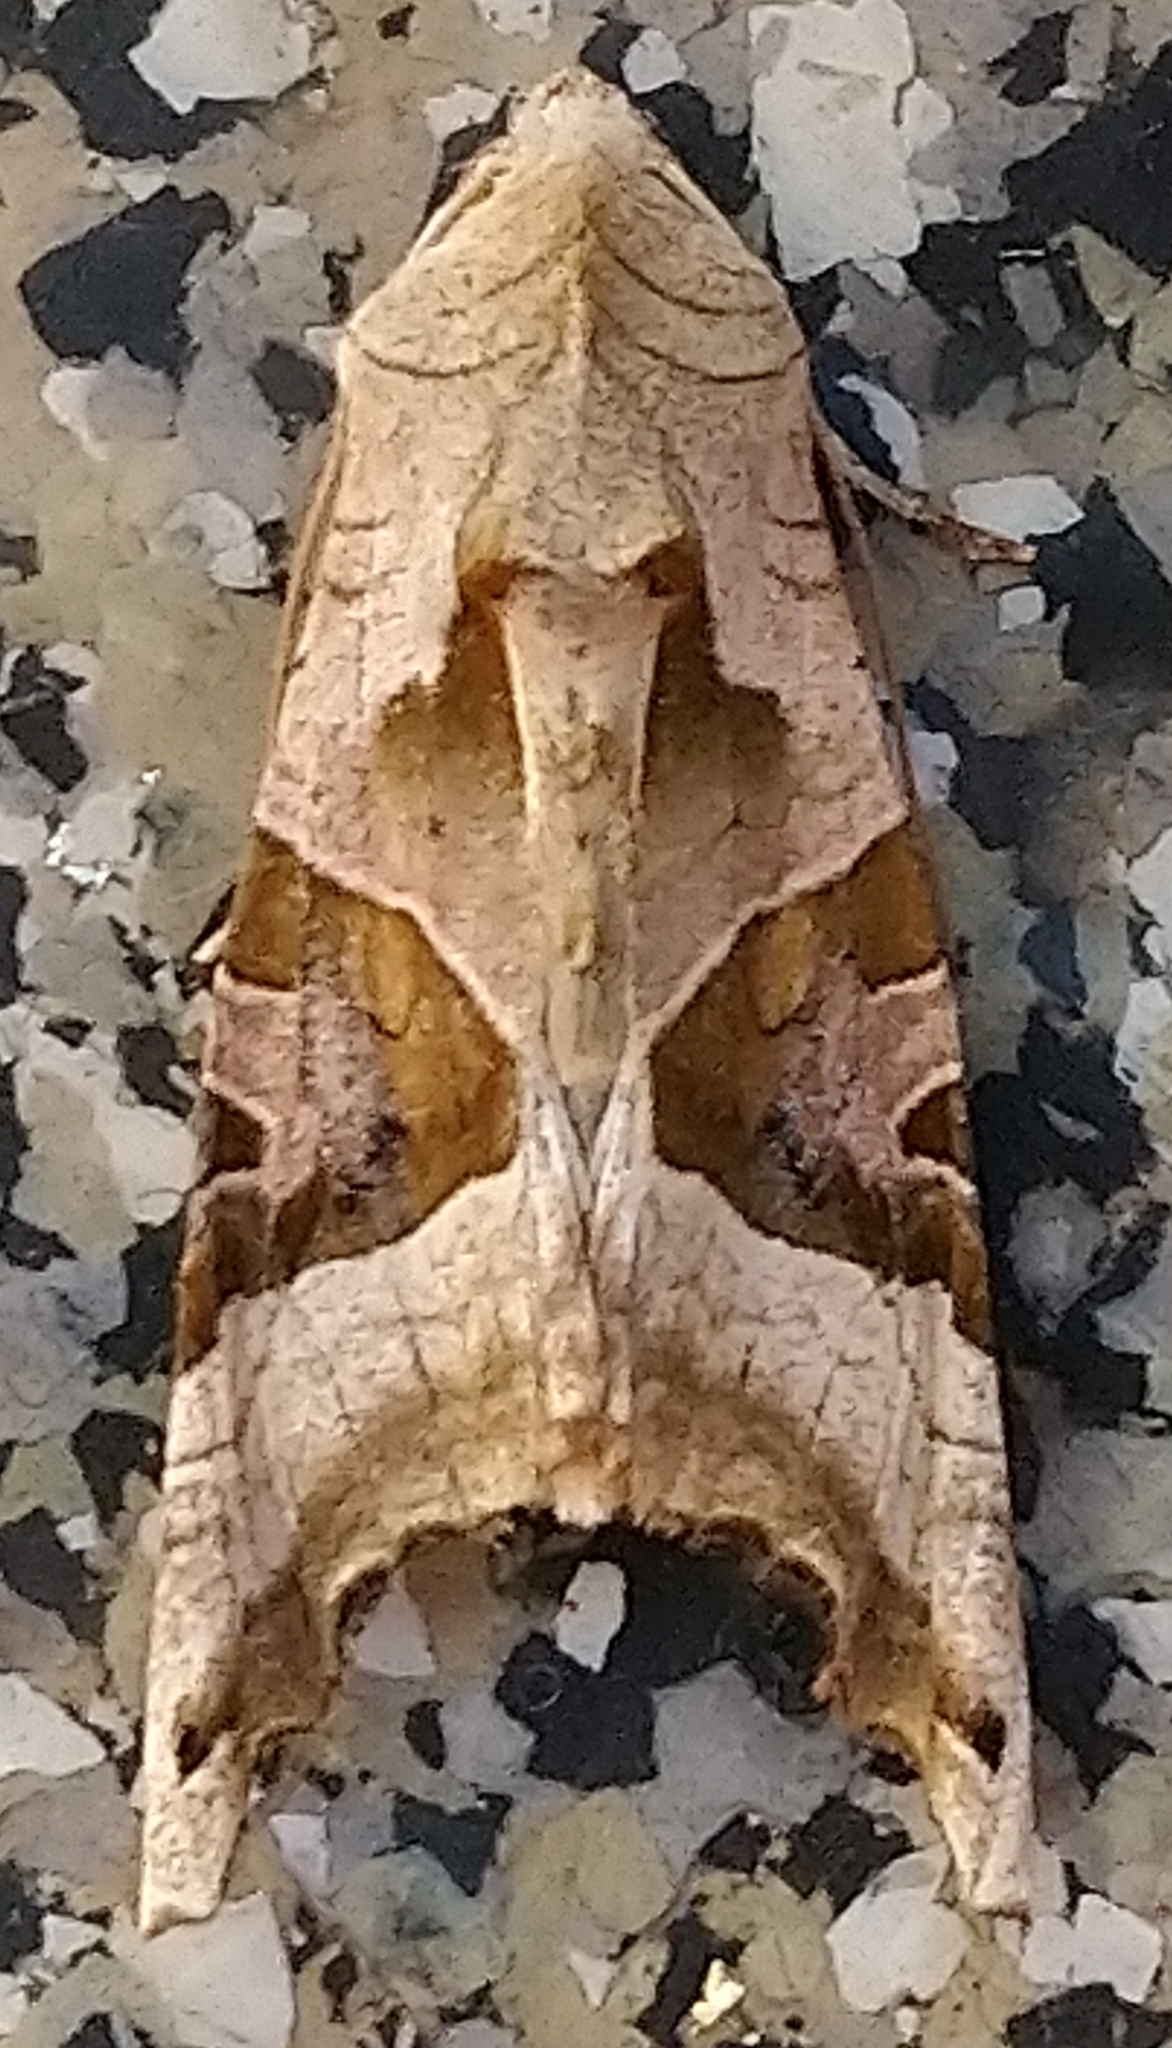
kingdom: Animalia
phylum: Arthropoda
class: Insecta
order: Lepidoptera
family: Noctuidae
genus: Phlogophora
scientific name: Phlogophora meticulosa
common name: Angle shades
